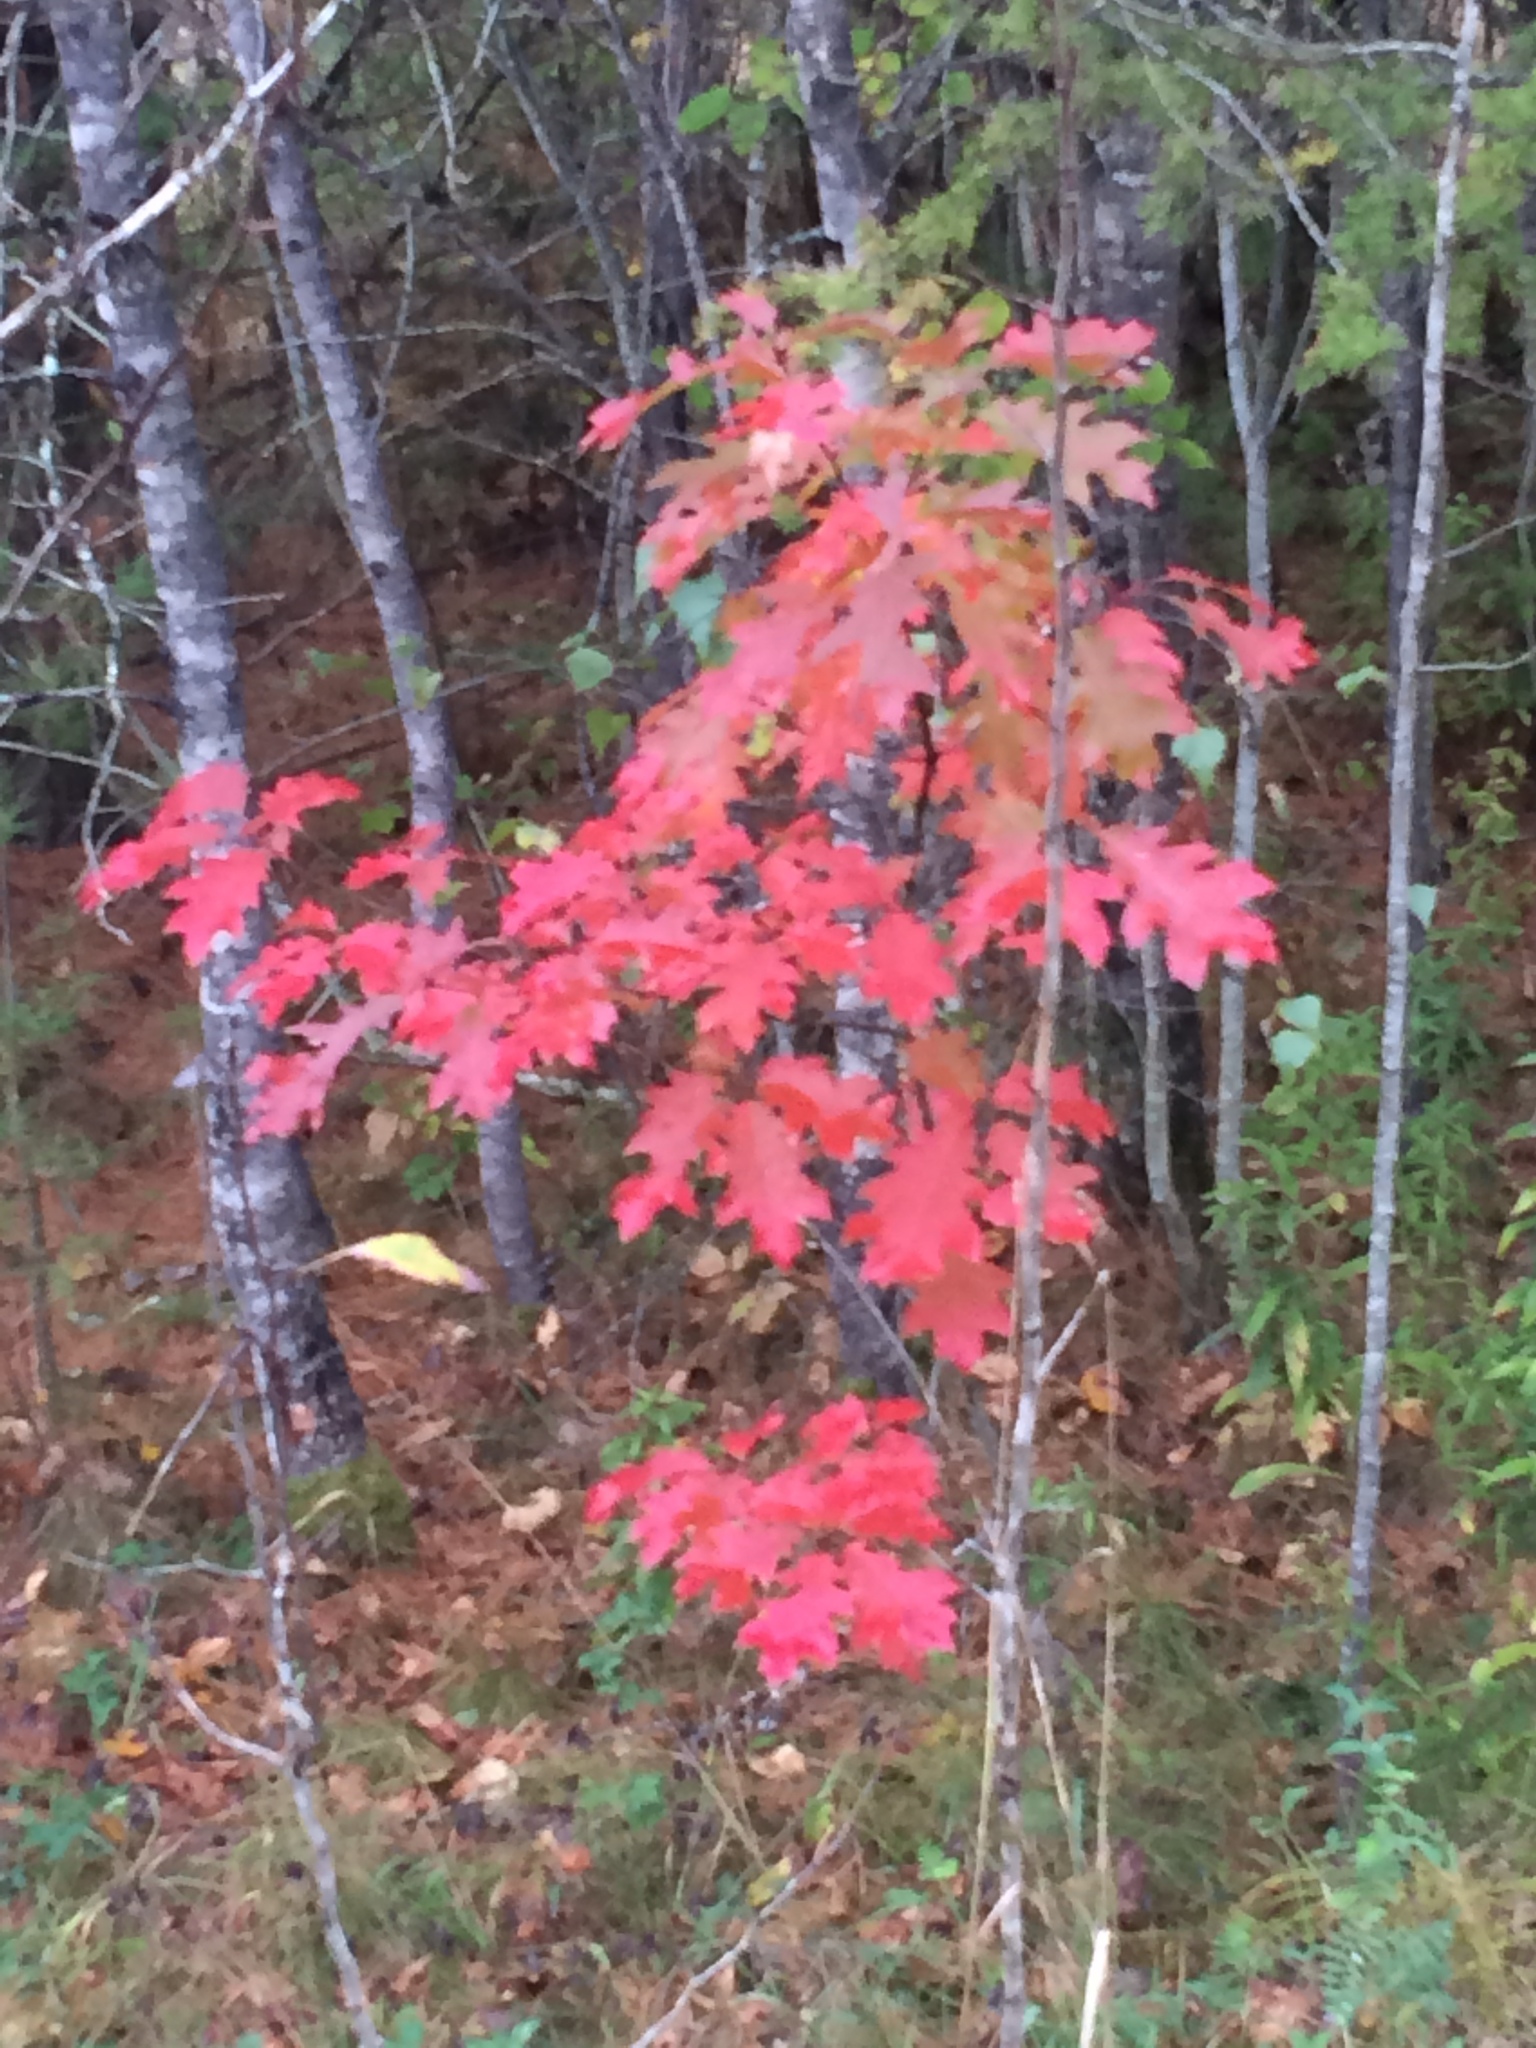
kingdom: Plantae
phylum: Tracheophyta
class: Magnoliopsida
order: Fagales
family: Fagaceae
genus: Quercus
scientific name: Quercus rubra
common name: Red oak
